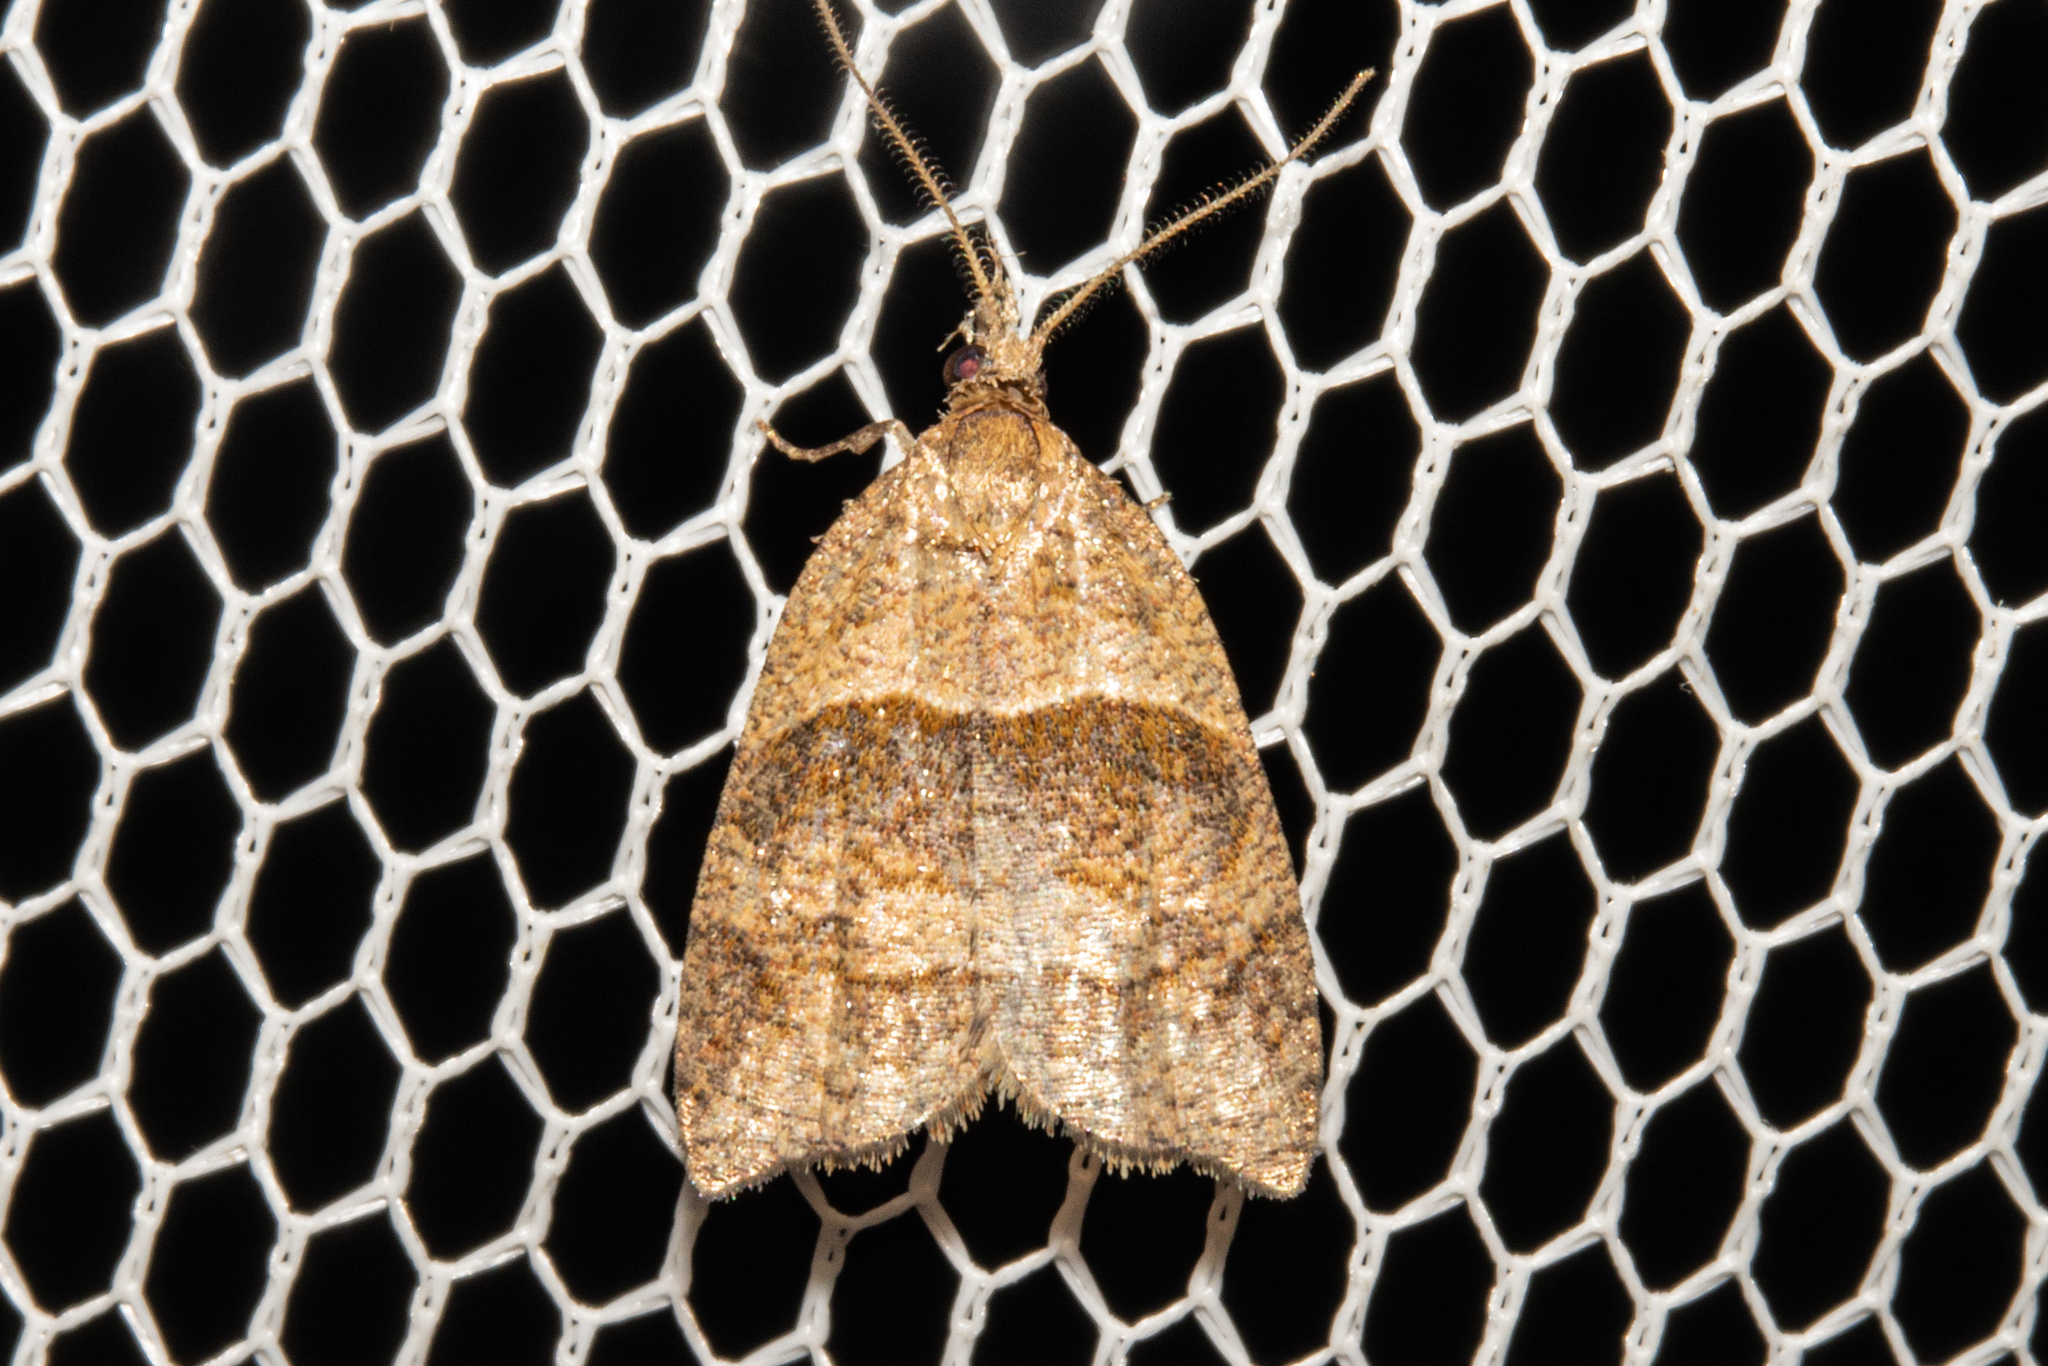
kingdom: Animalia
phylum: Arthropoda
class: Insecta
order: Lepidoptera
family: Tortricidae
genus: Cnephasia
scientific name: Cnephasia incertana
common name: Light grey tortrix
